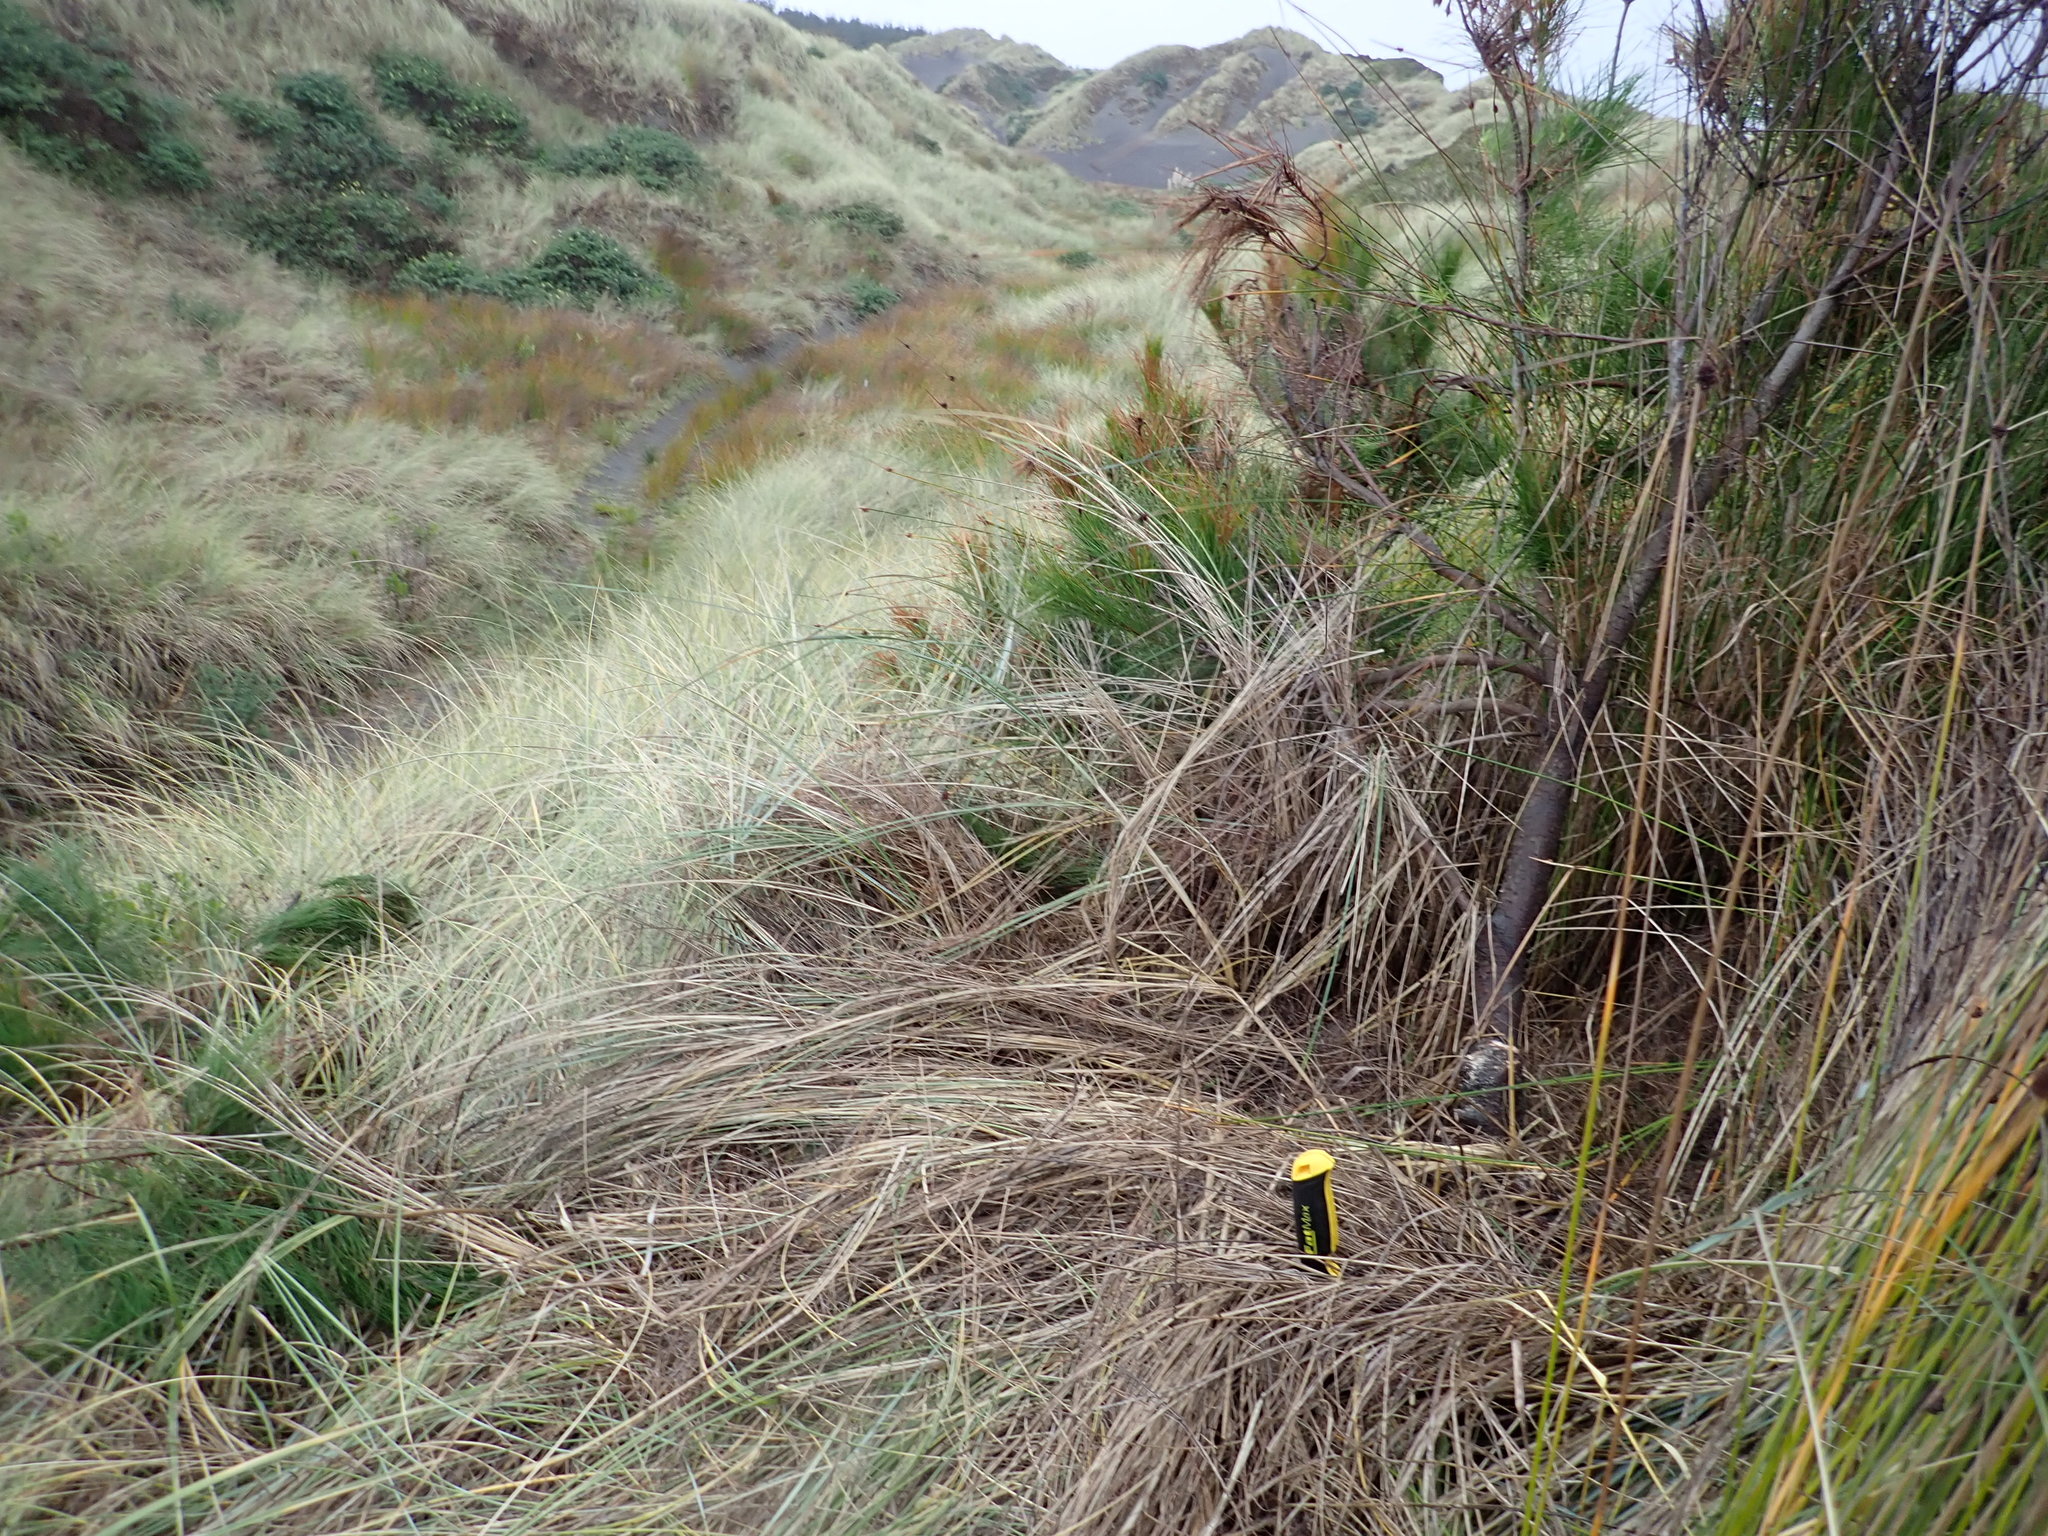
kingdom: Plantae
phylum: Tracheophyta
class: Pinopsida
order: Pinales
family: Pinaceae
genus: Pinus
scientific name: Pinus radiata
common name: Monterey pine
